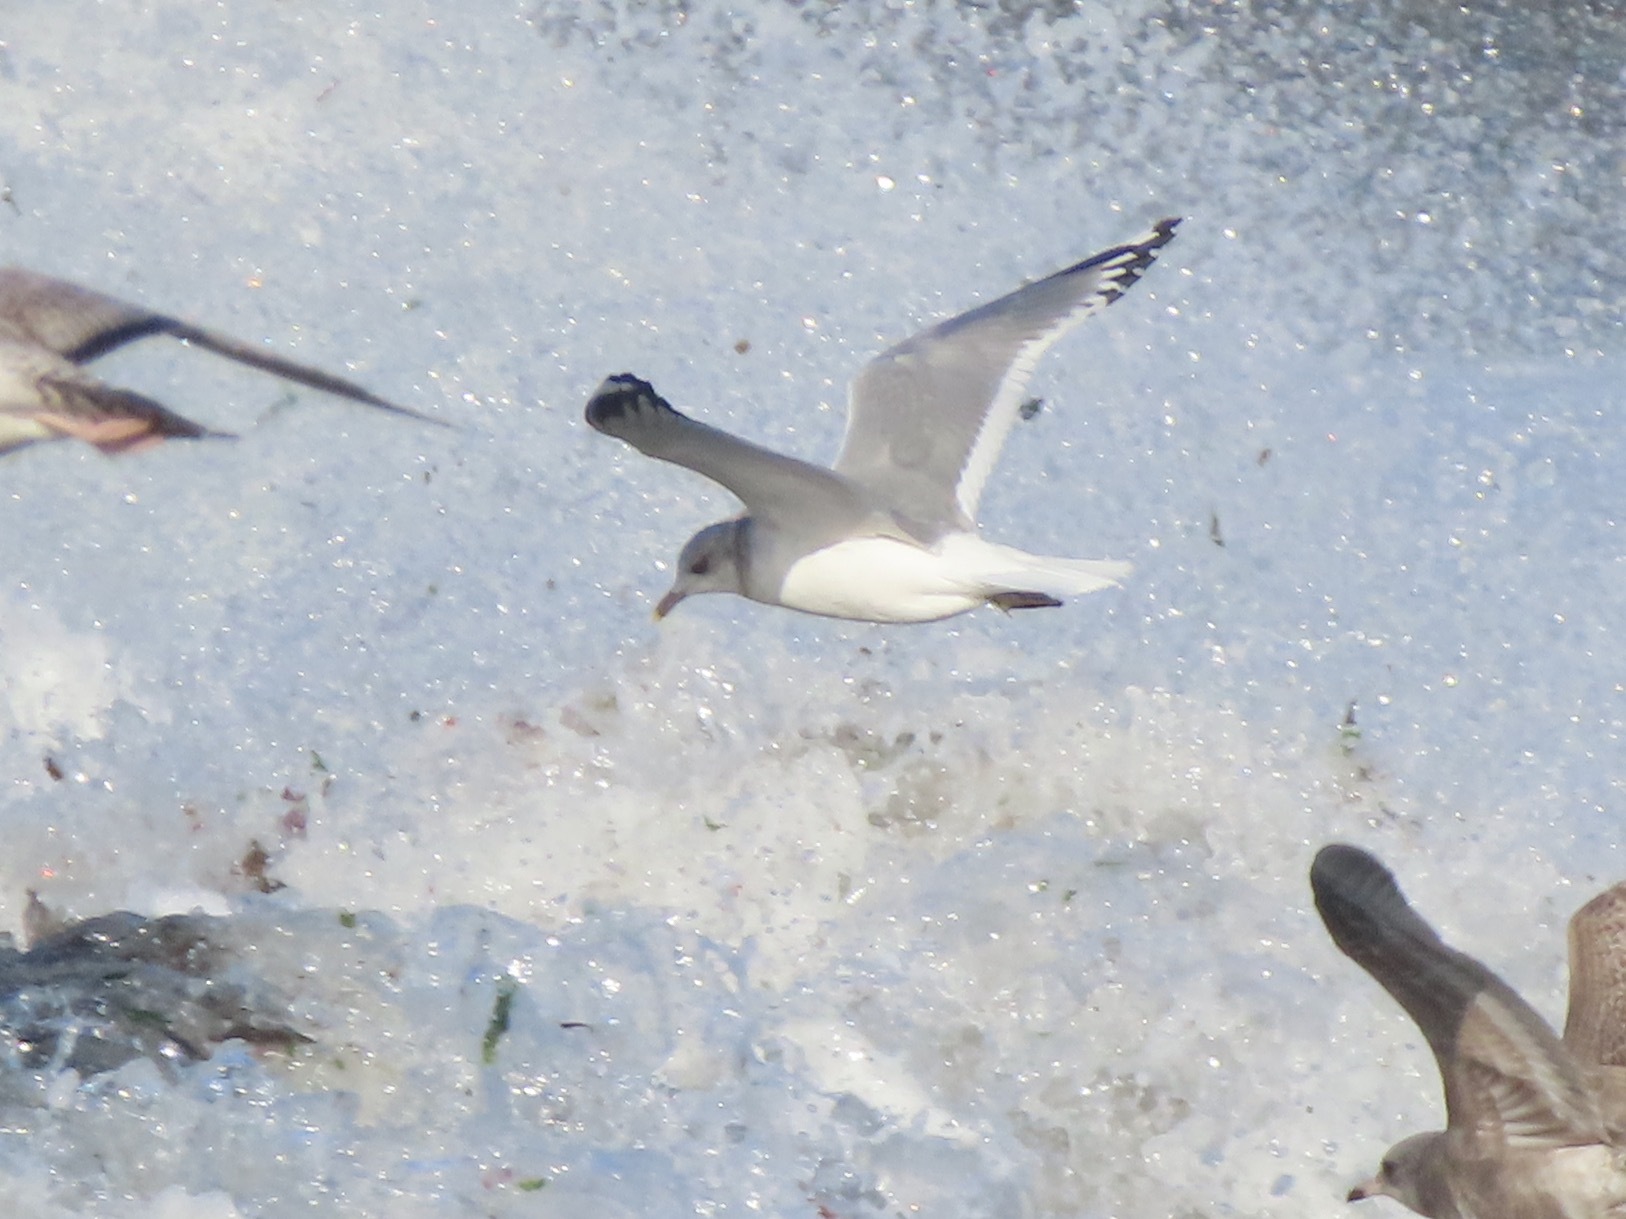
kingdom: Animalia
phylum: Chordata
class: Aves
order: Charadriiformes
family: Laridae
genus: Larus
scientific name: Larus brachyrhynchus
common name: Short-billed gull
